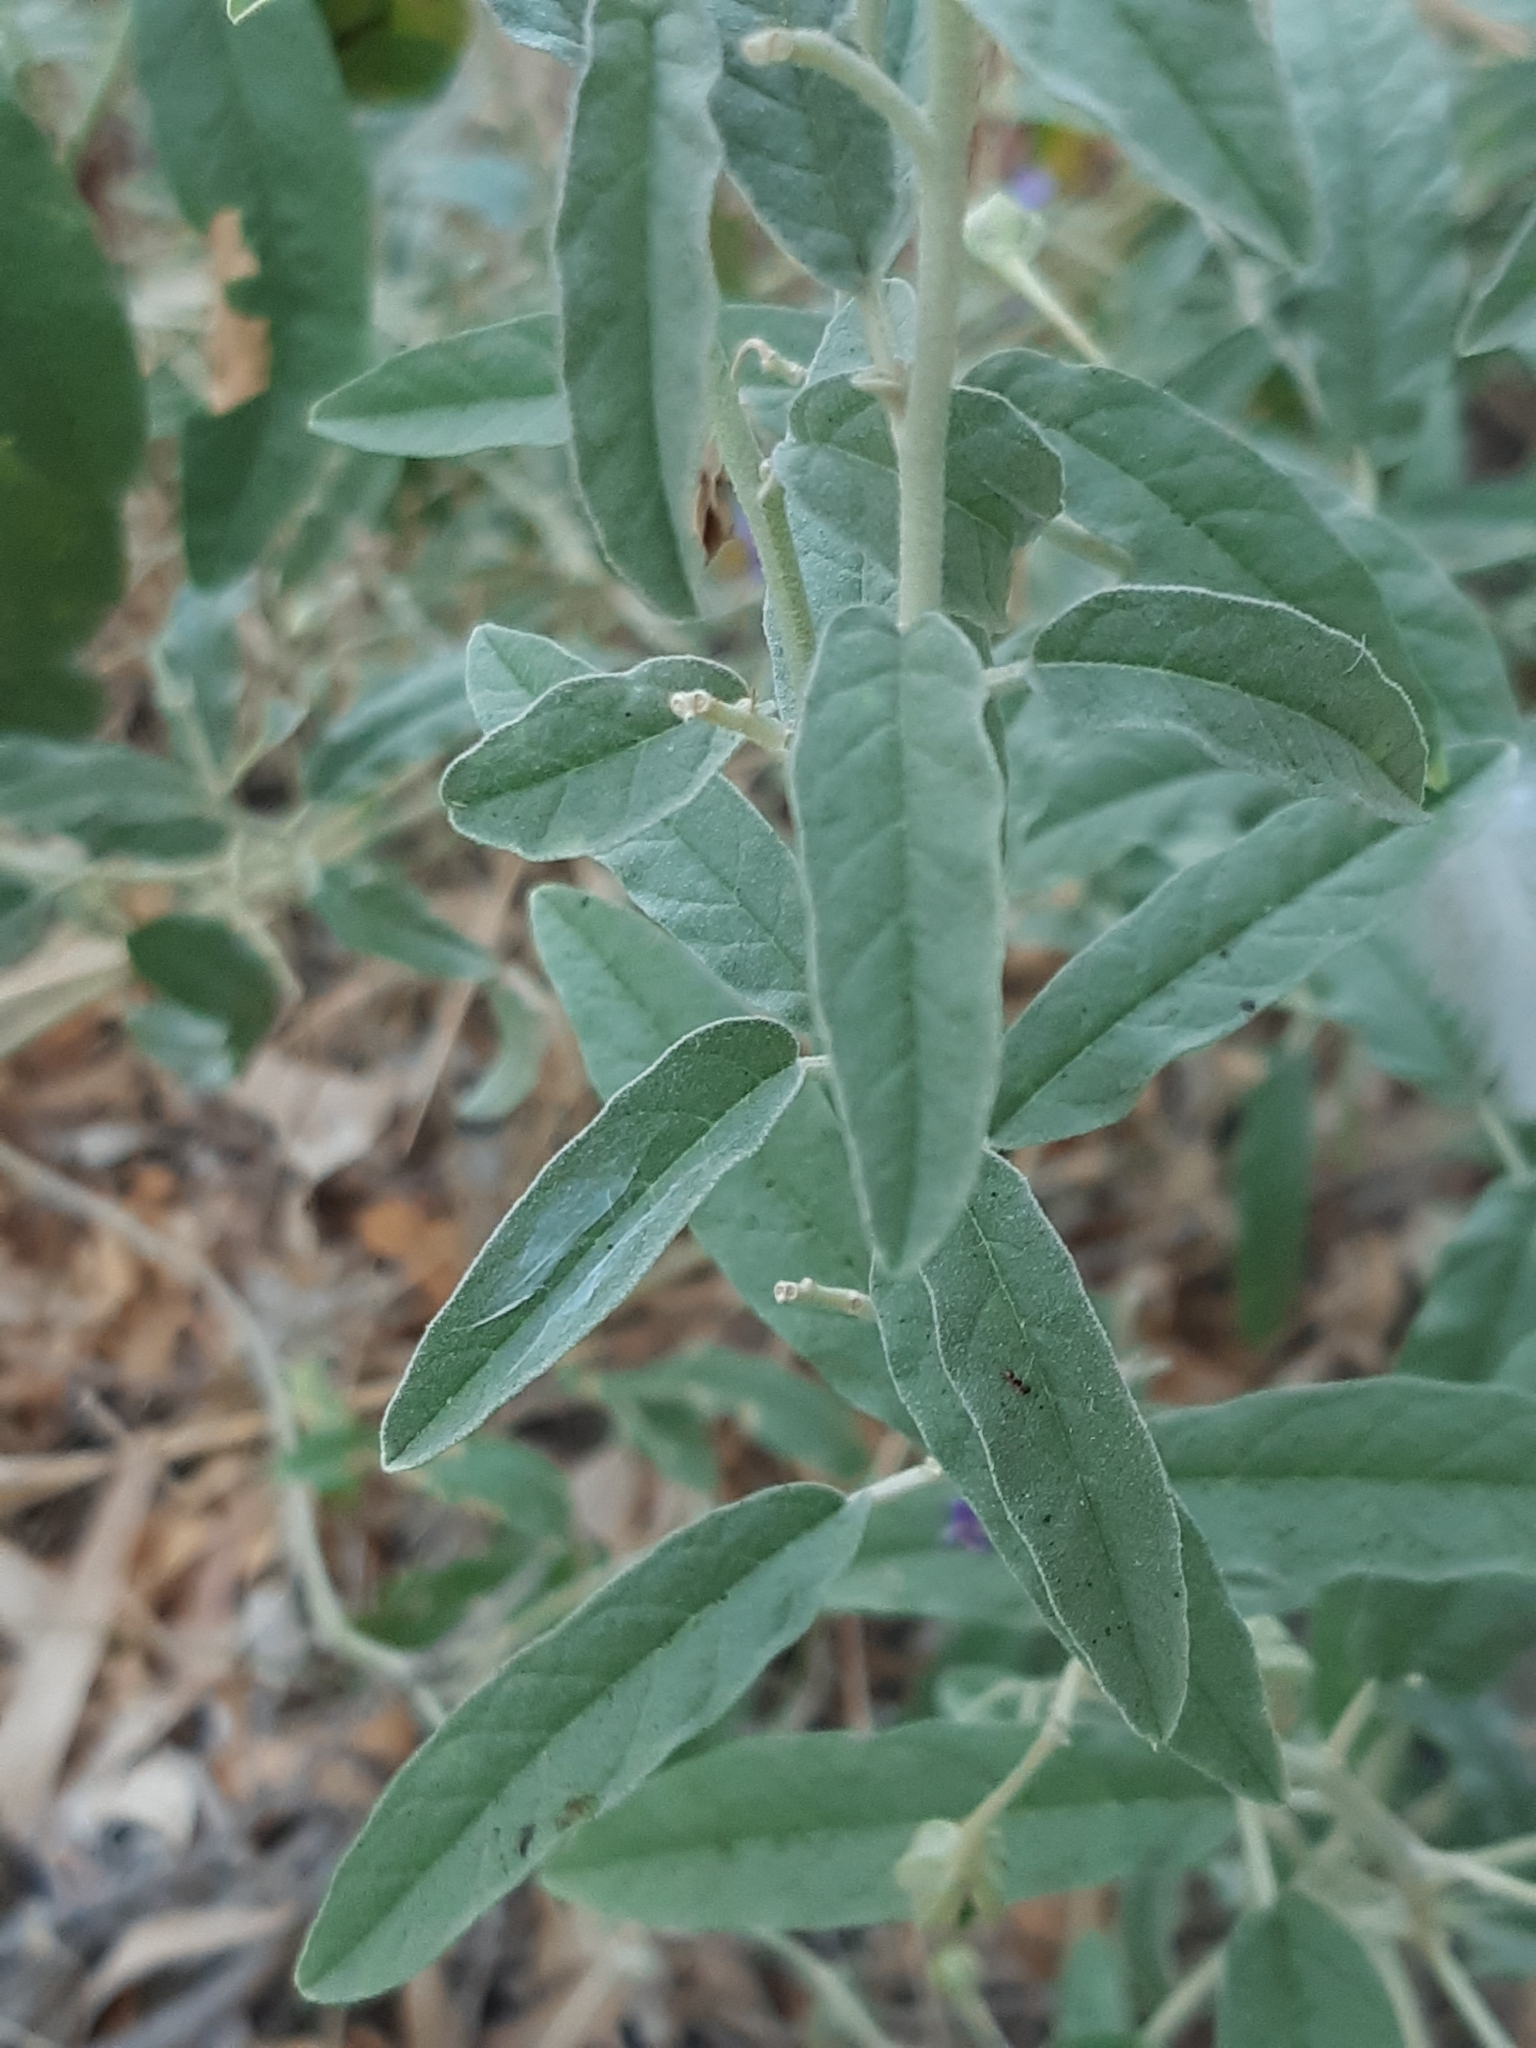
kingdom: Plantae
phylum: Tracheophyta
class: Magnoliopsida
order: Solanales
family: Solanaceae
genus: Solanum
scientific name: Solanum elaeagnifolium
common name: Silverleaf nightshade
